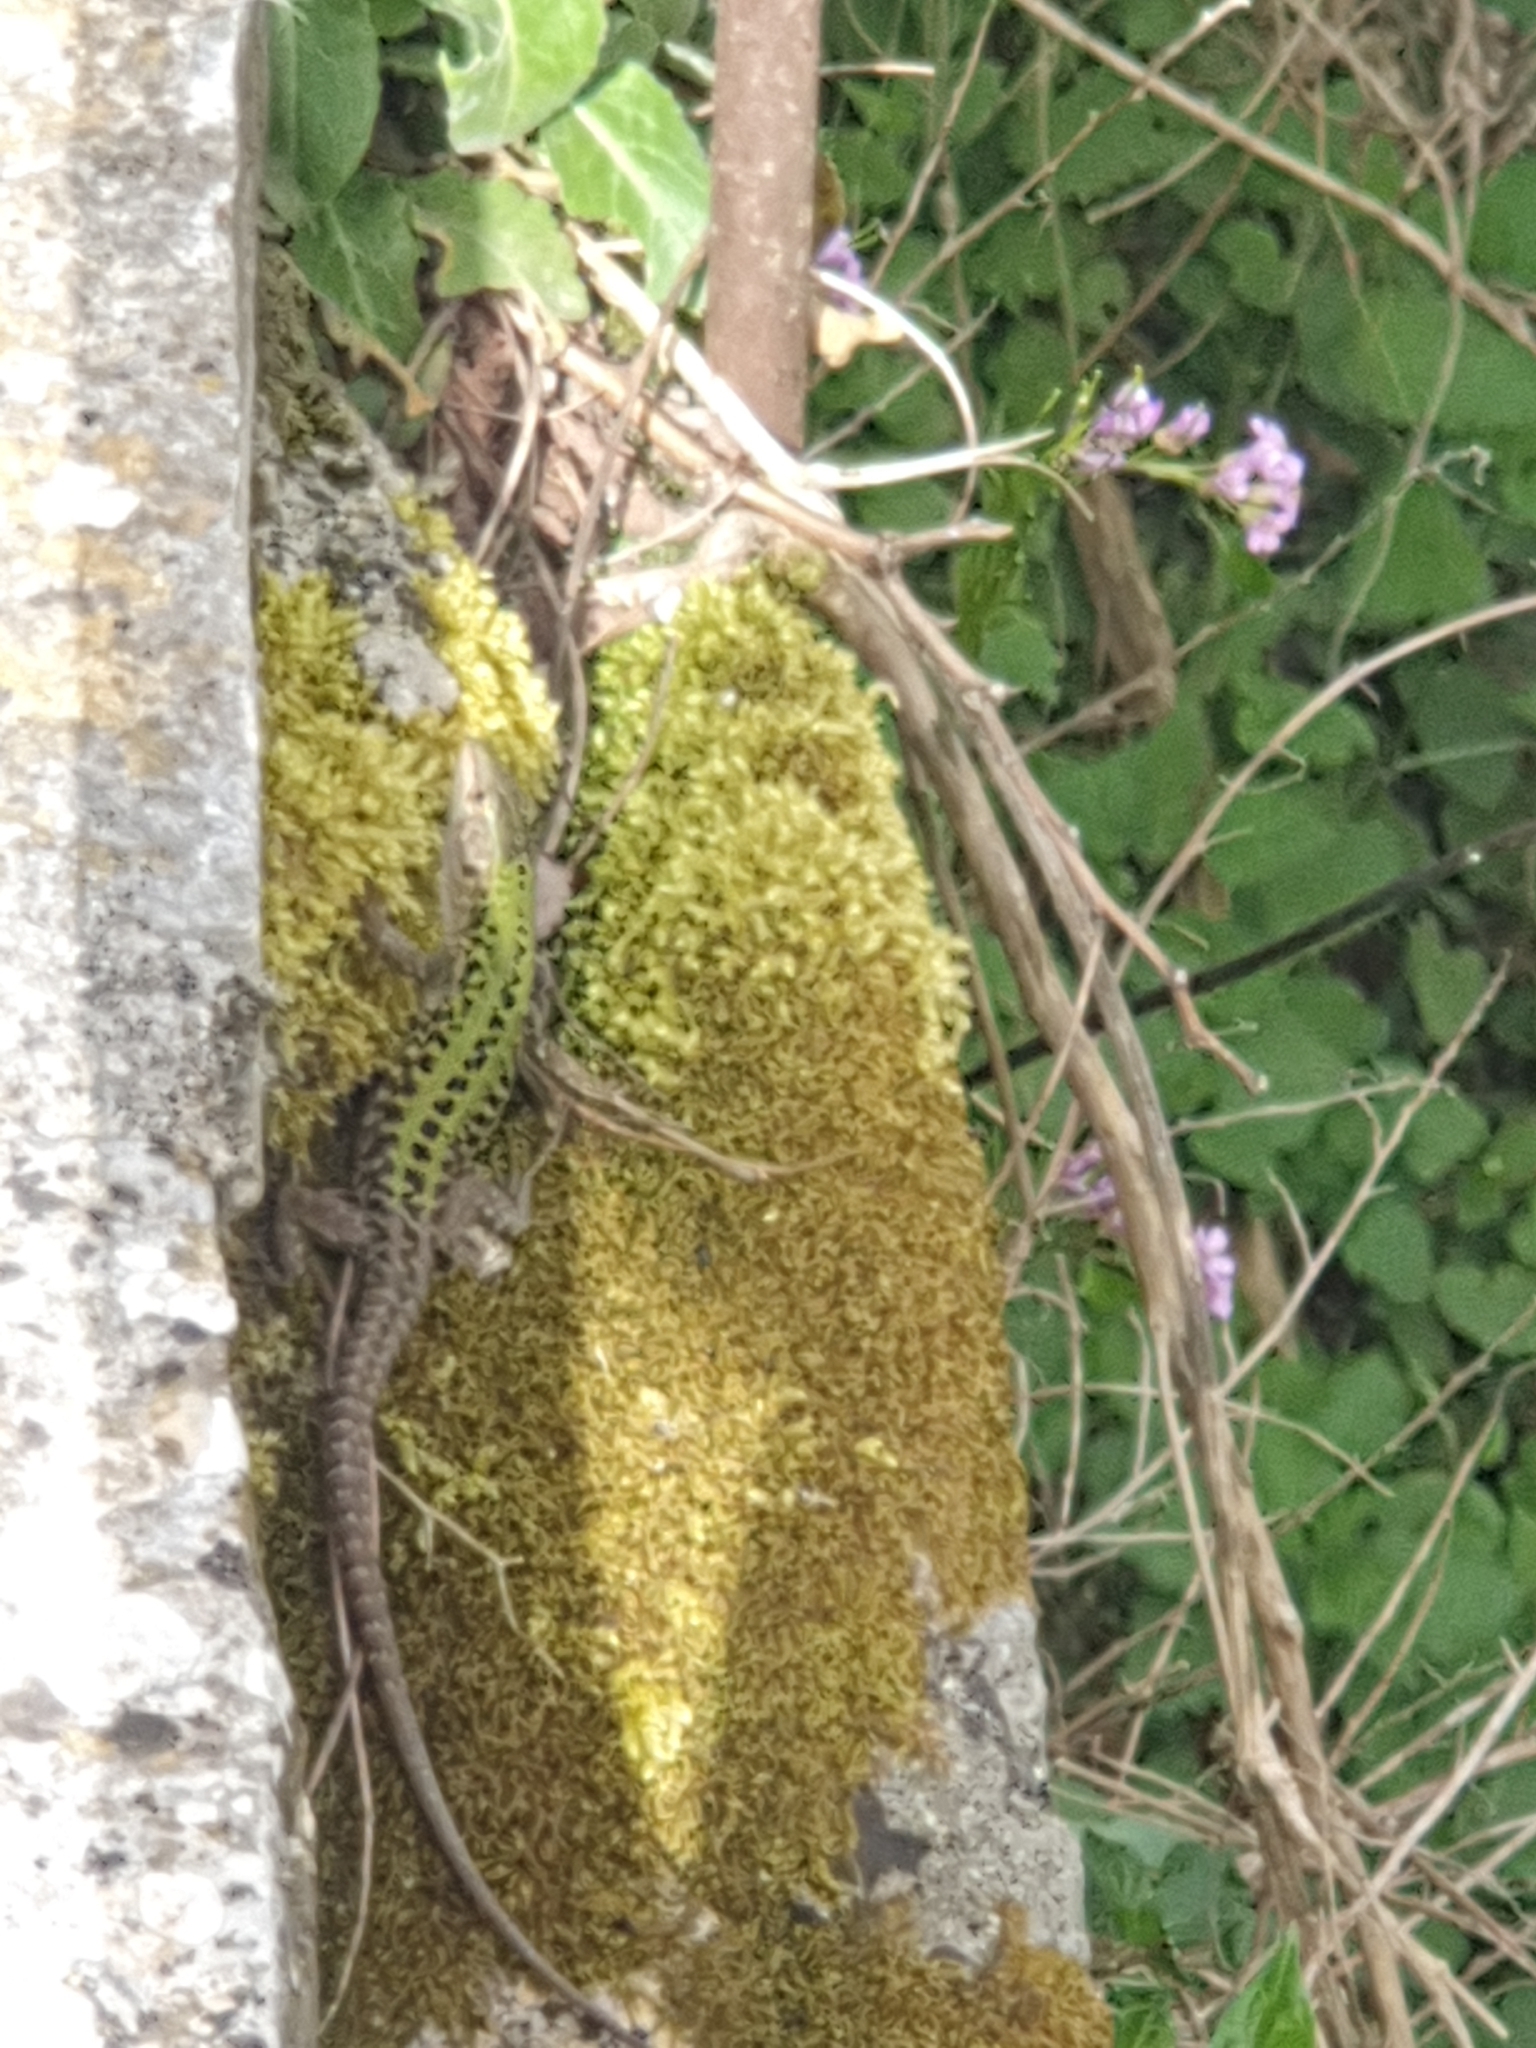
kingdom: Animalia
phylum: Chordata
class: Squamata
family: Lacertidae
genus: Podarcis
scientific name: Podarcis siculus
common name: Italian wall lizard
